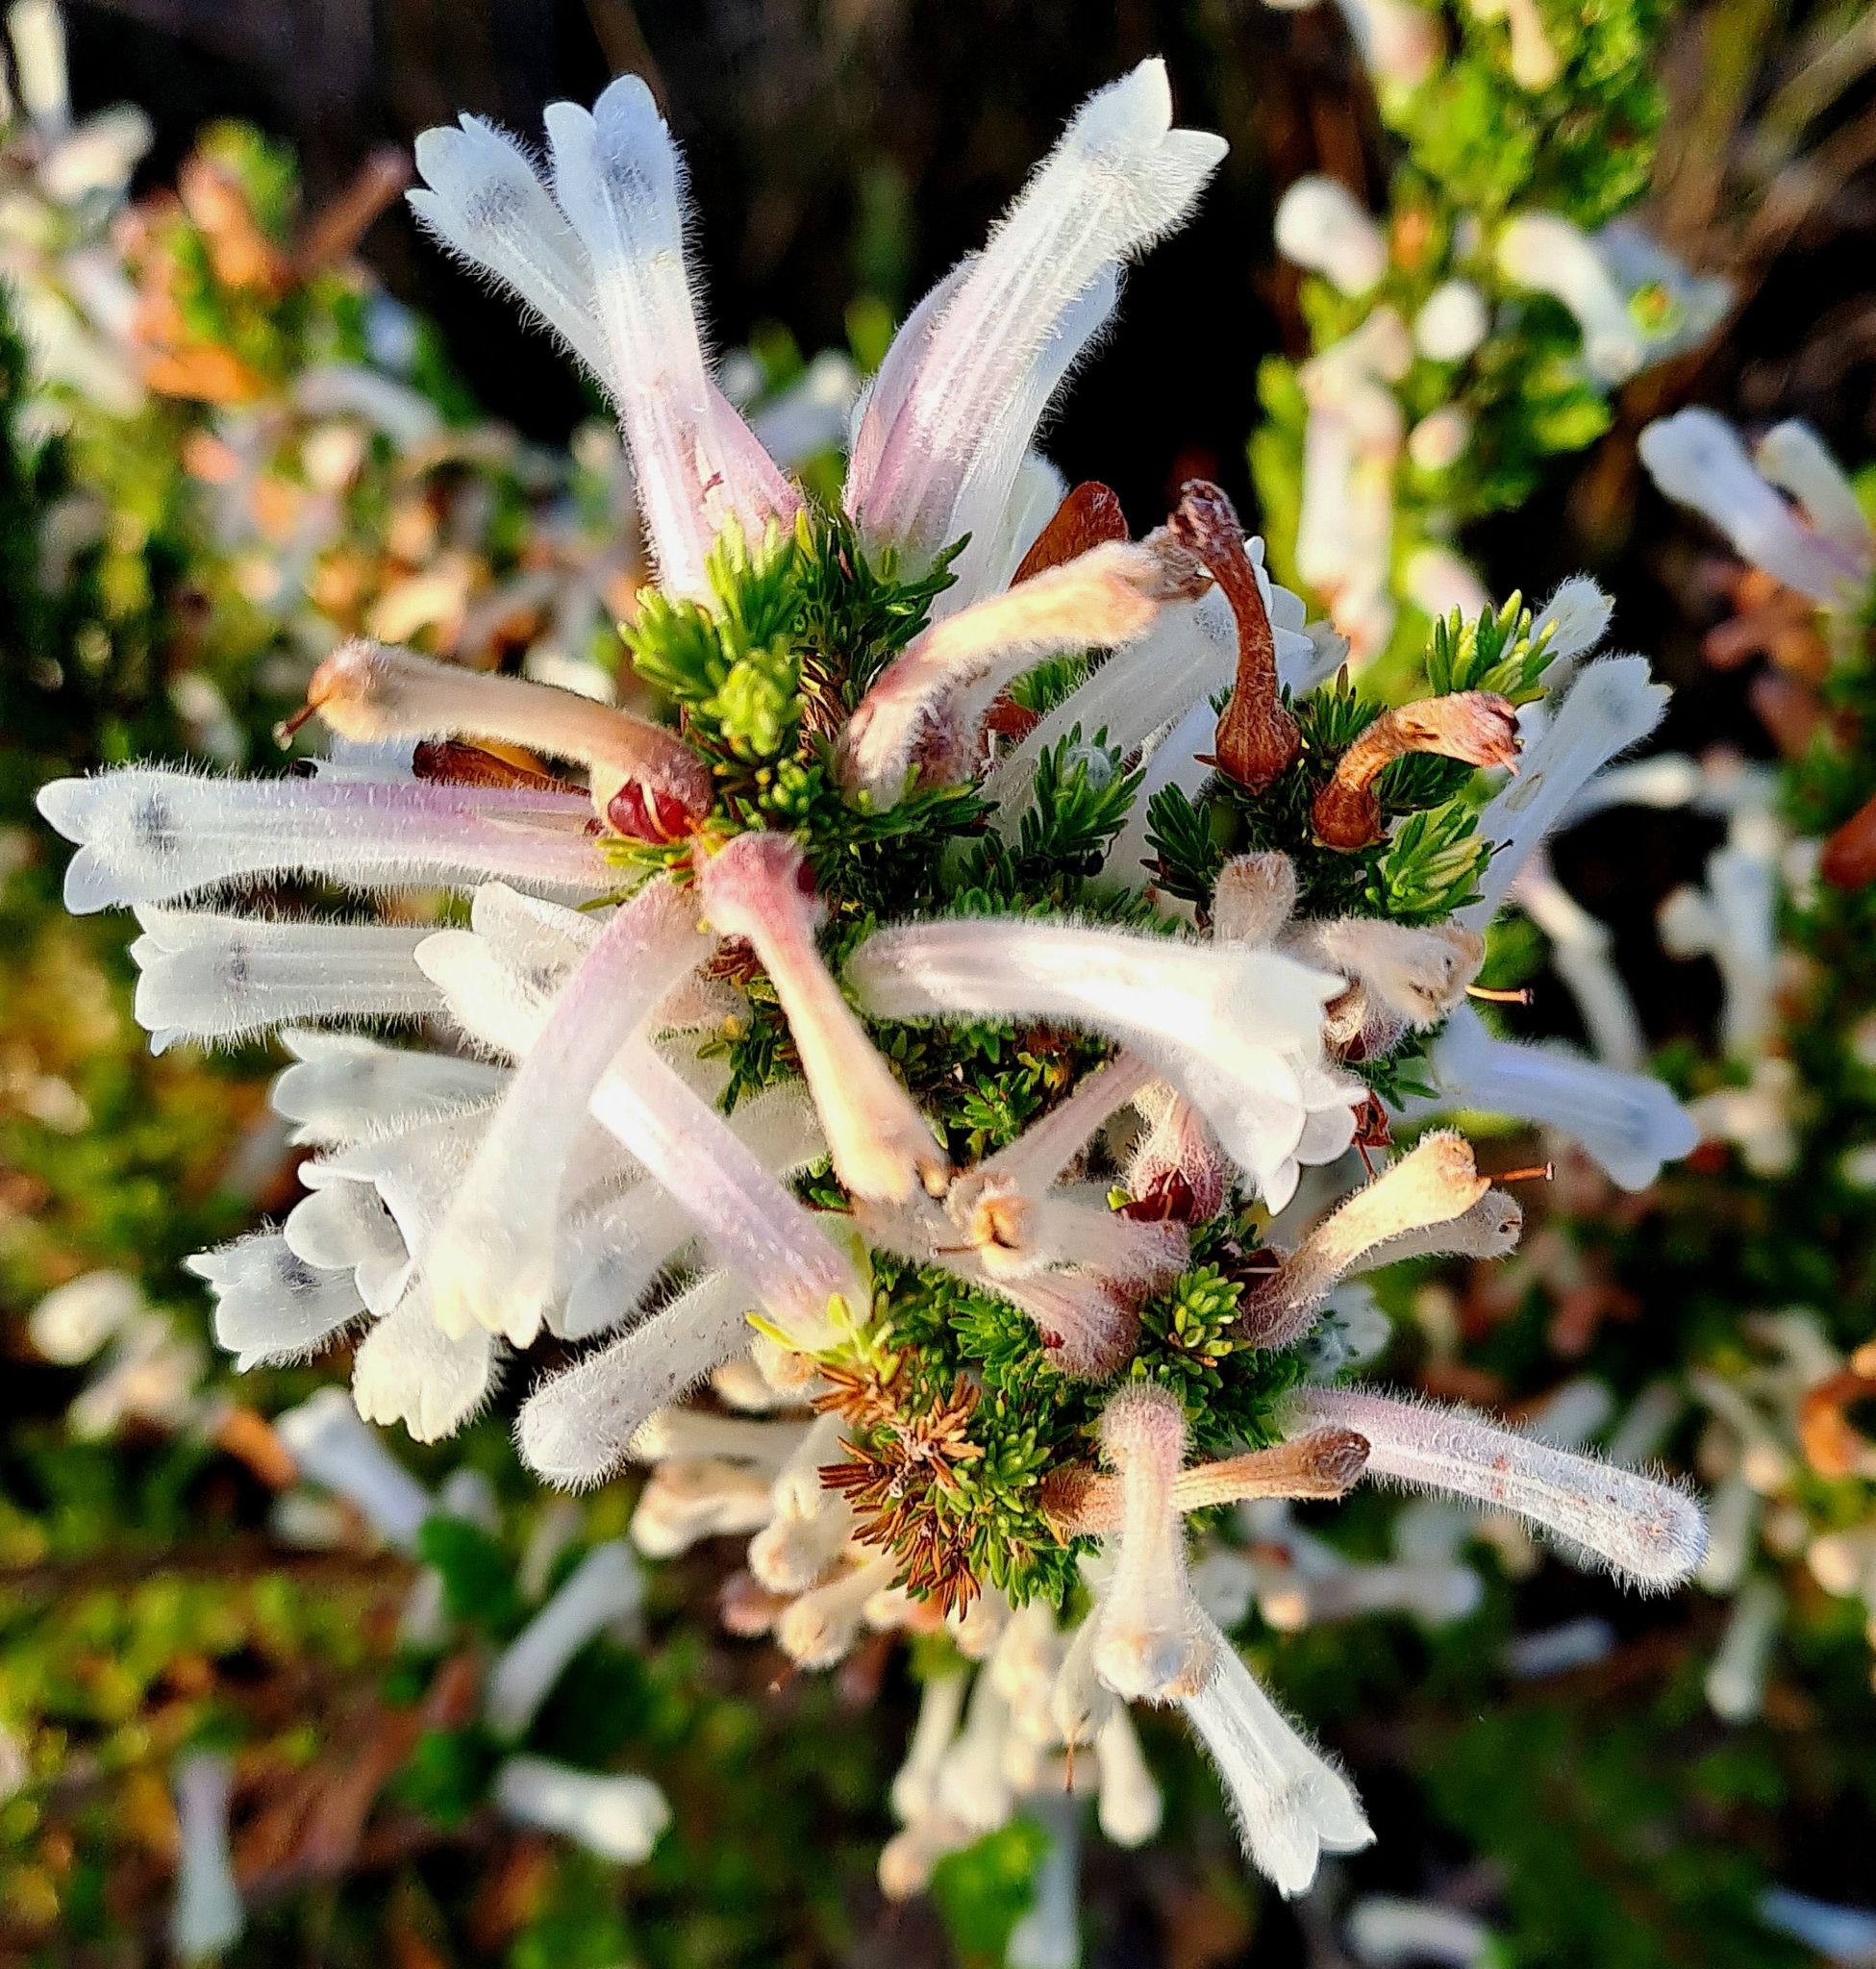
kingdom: Plantae
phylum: Tracheophyta
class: Magnoliopsida
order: Ericales
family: Ericaceae
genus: Erica
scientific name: Erica perspicua
